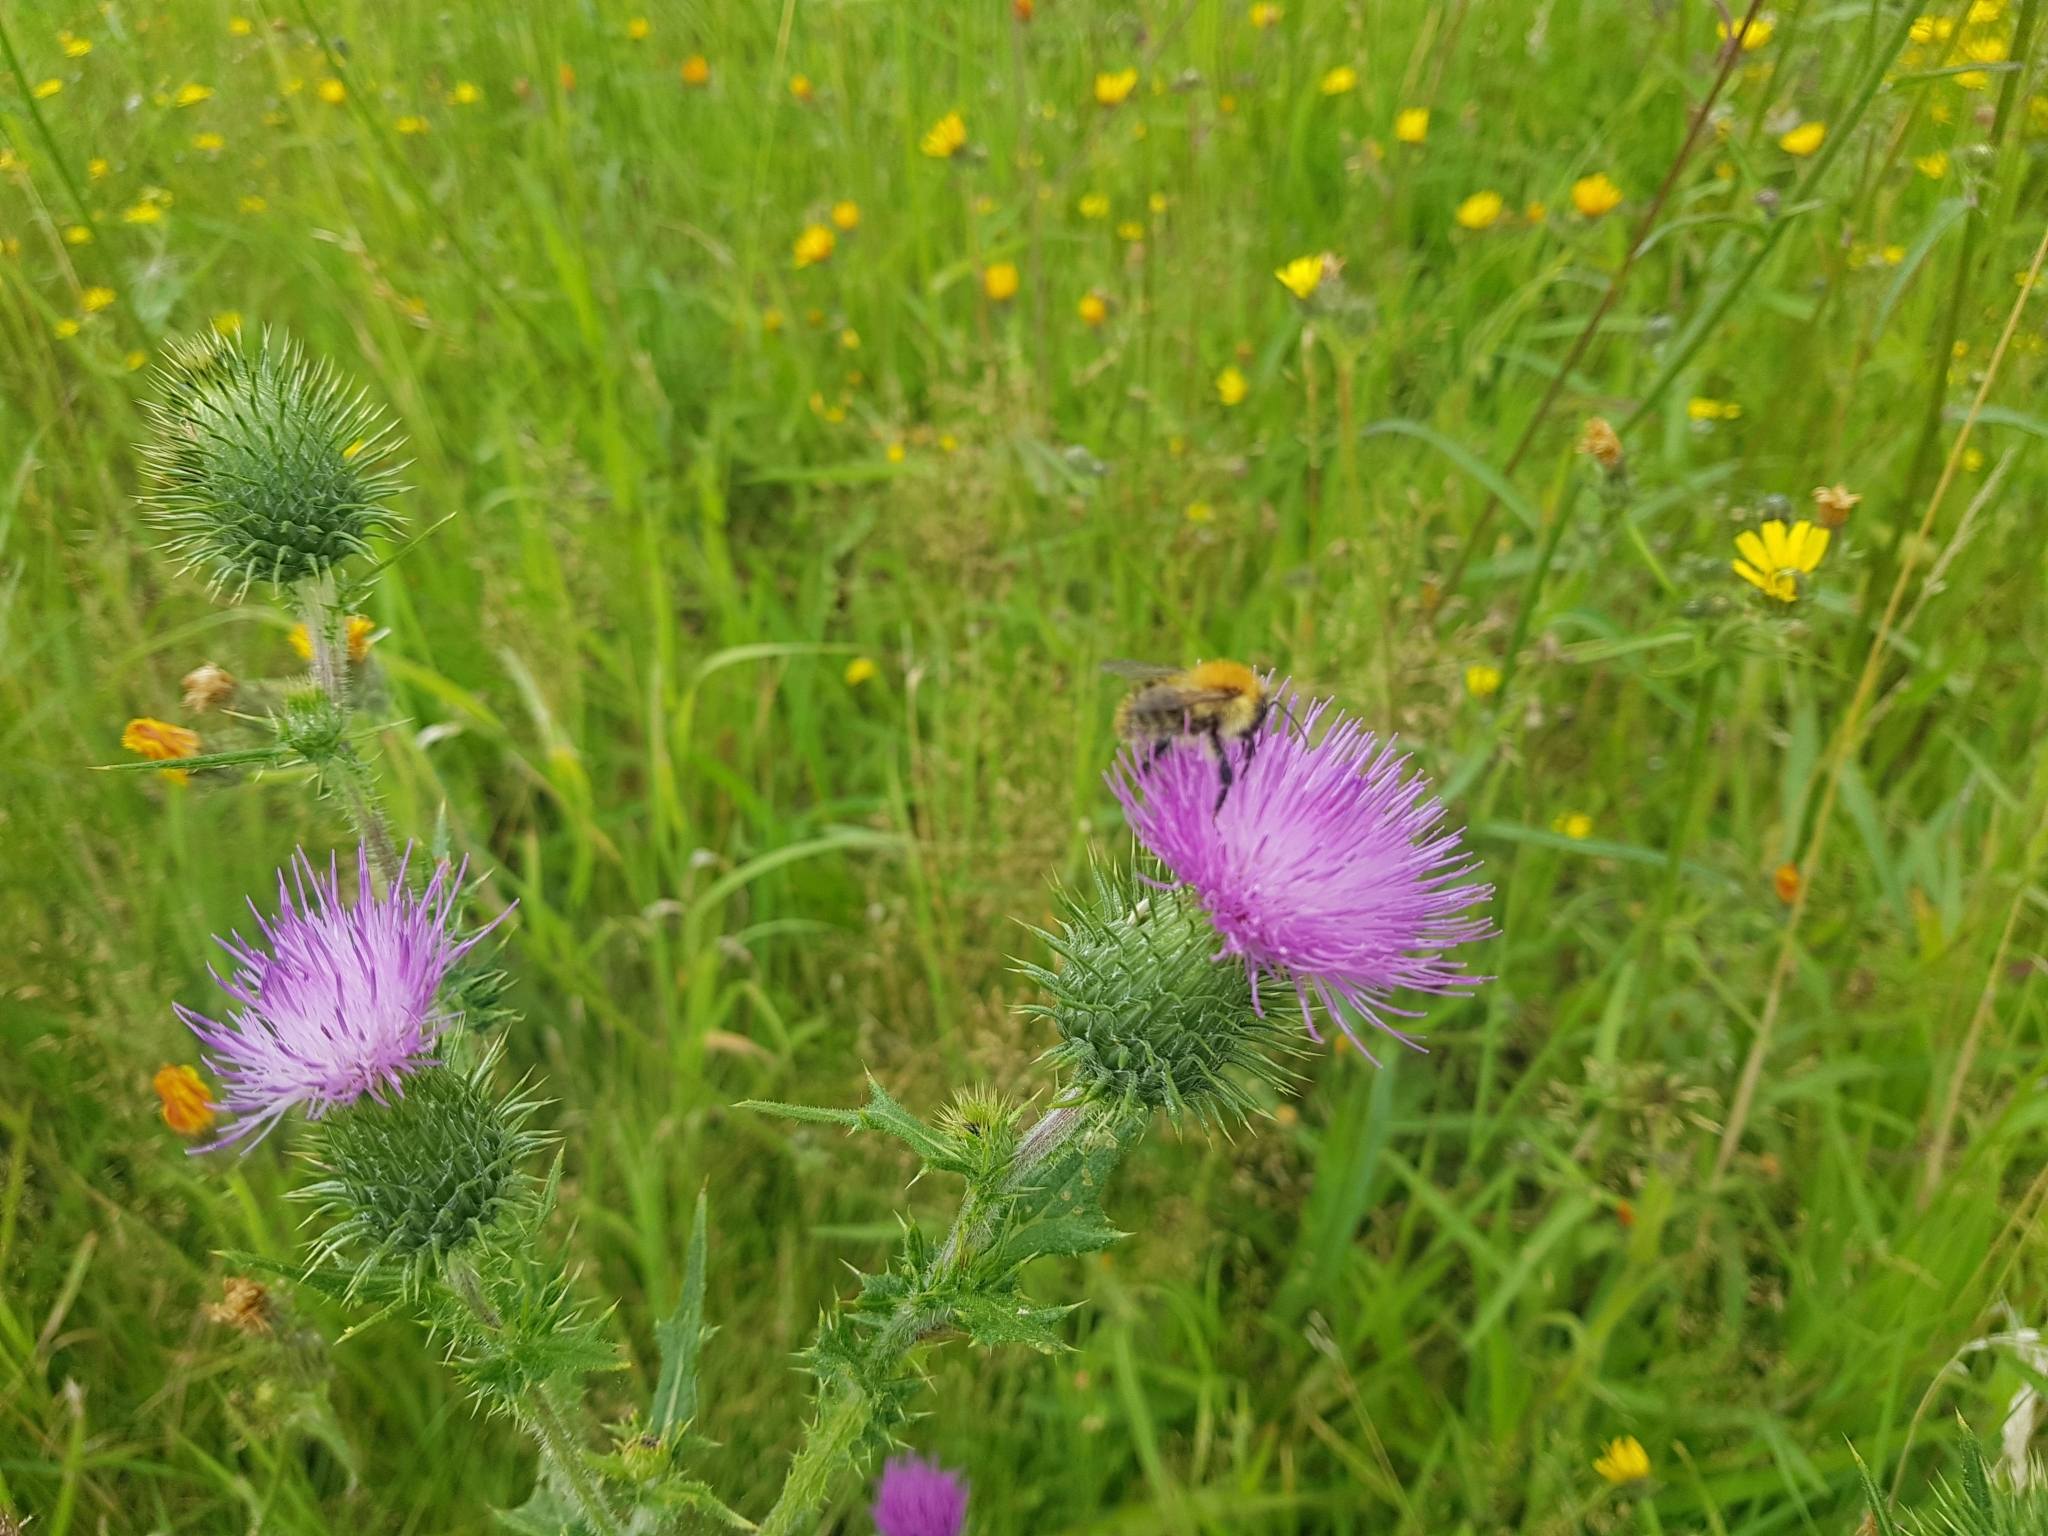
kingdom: Plantae
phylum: Tracheophyta
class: Magnoliopsida
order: Asterales
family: Asteraceae
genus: Cirsium
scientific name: Cirsium vulgare
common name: Bull thistle
